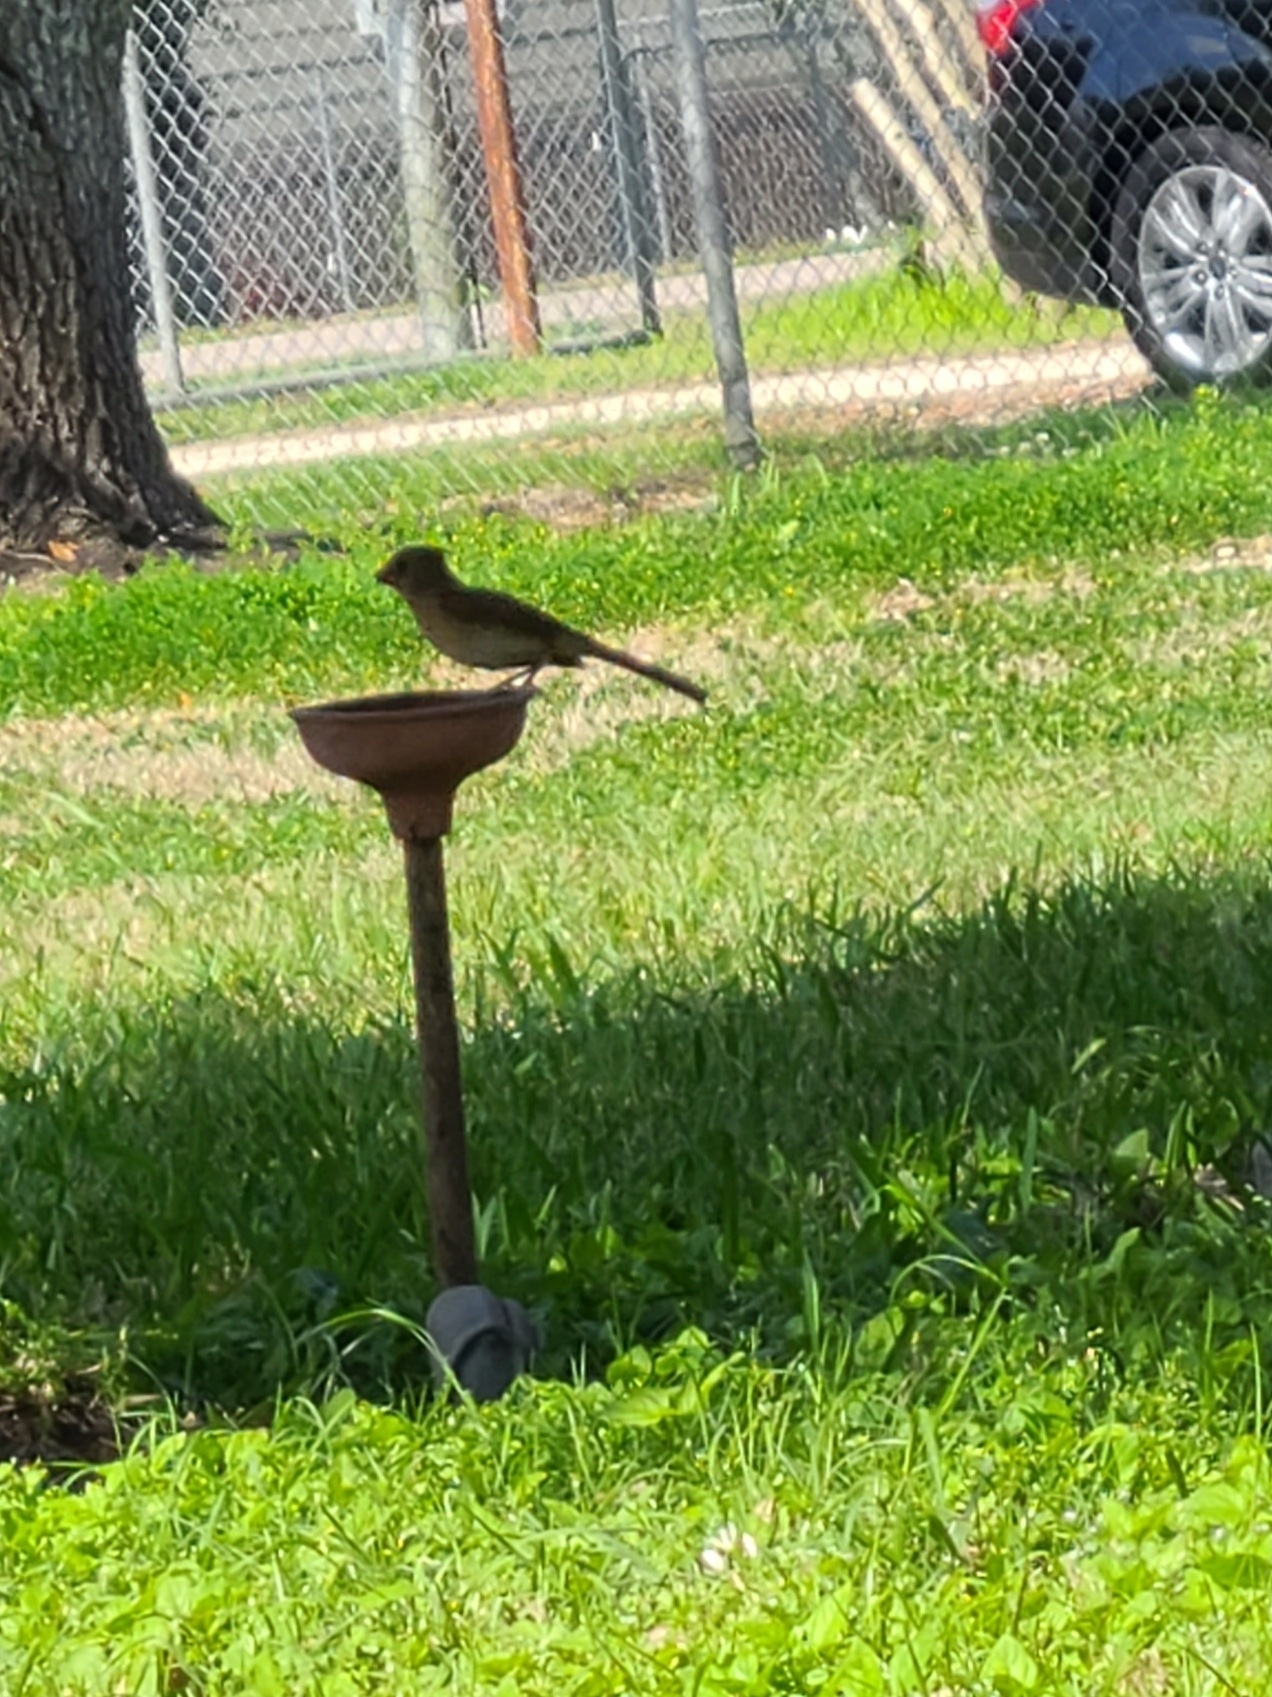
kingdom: Animalia
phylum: Chordata
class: Aves
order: Passeriformes
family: Cardinalidae
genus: Cardinalis
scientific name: Cardinalis cardinalis
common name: Northern cardinal
